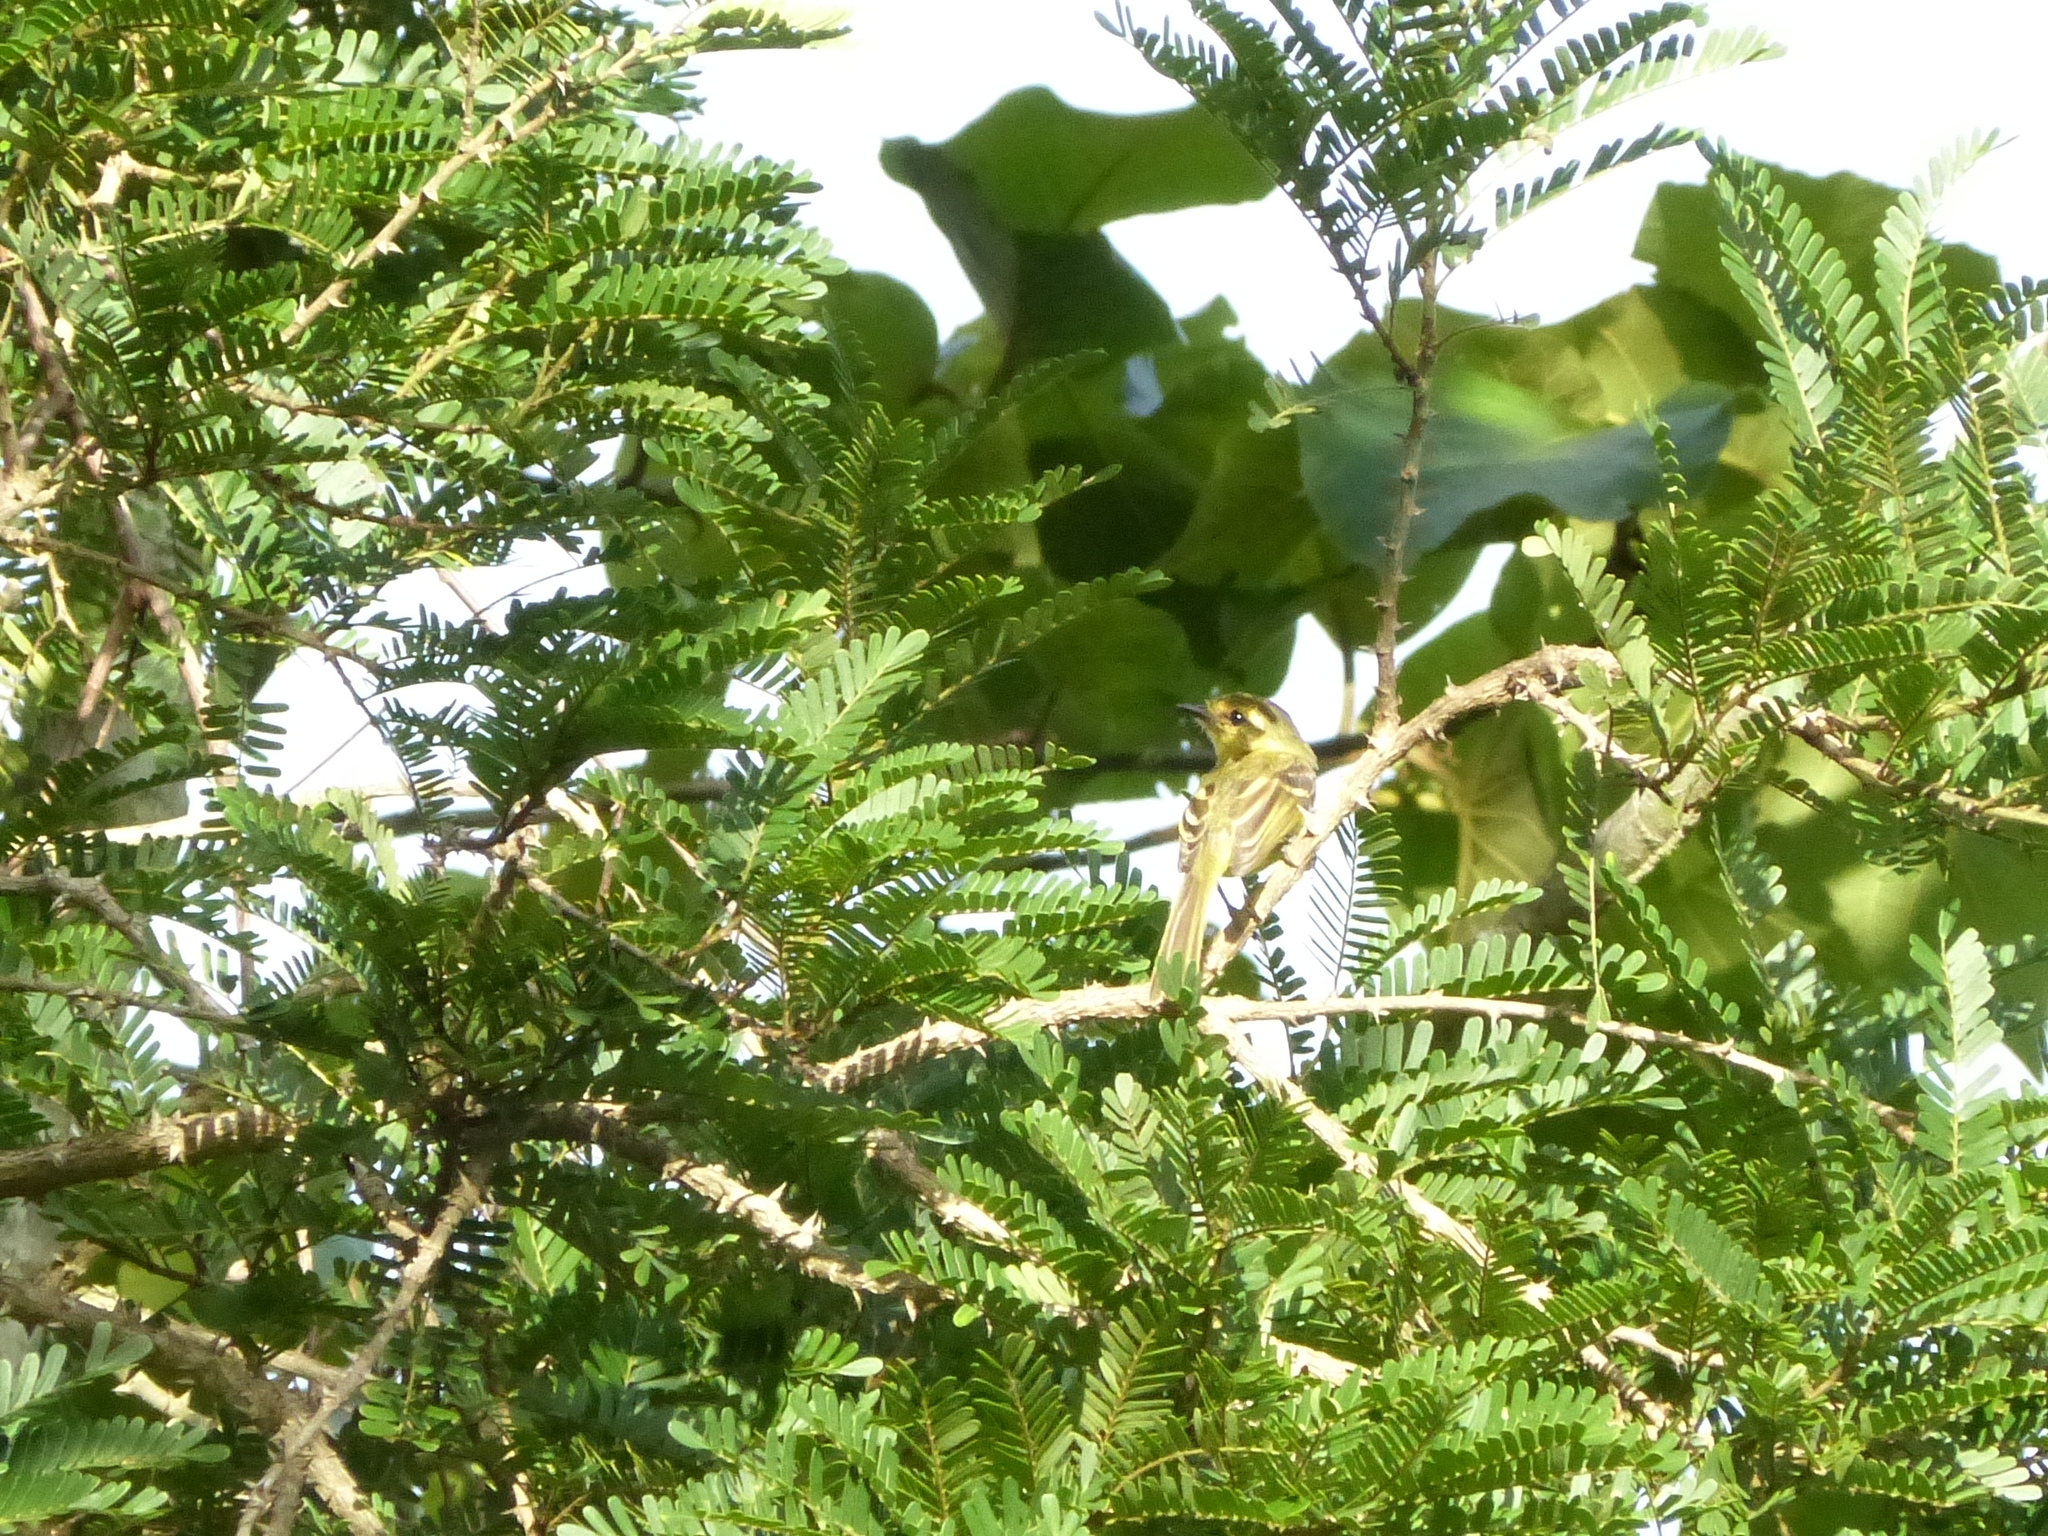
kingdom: Animalia
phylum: Chordata
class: Aves
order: Passeriformes
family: Tyrannidae
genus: Tolmomyias
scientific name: Tolmomyias flaviventris
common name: Ochre-lored flatbill
